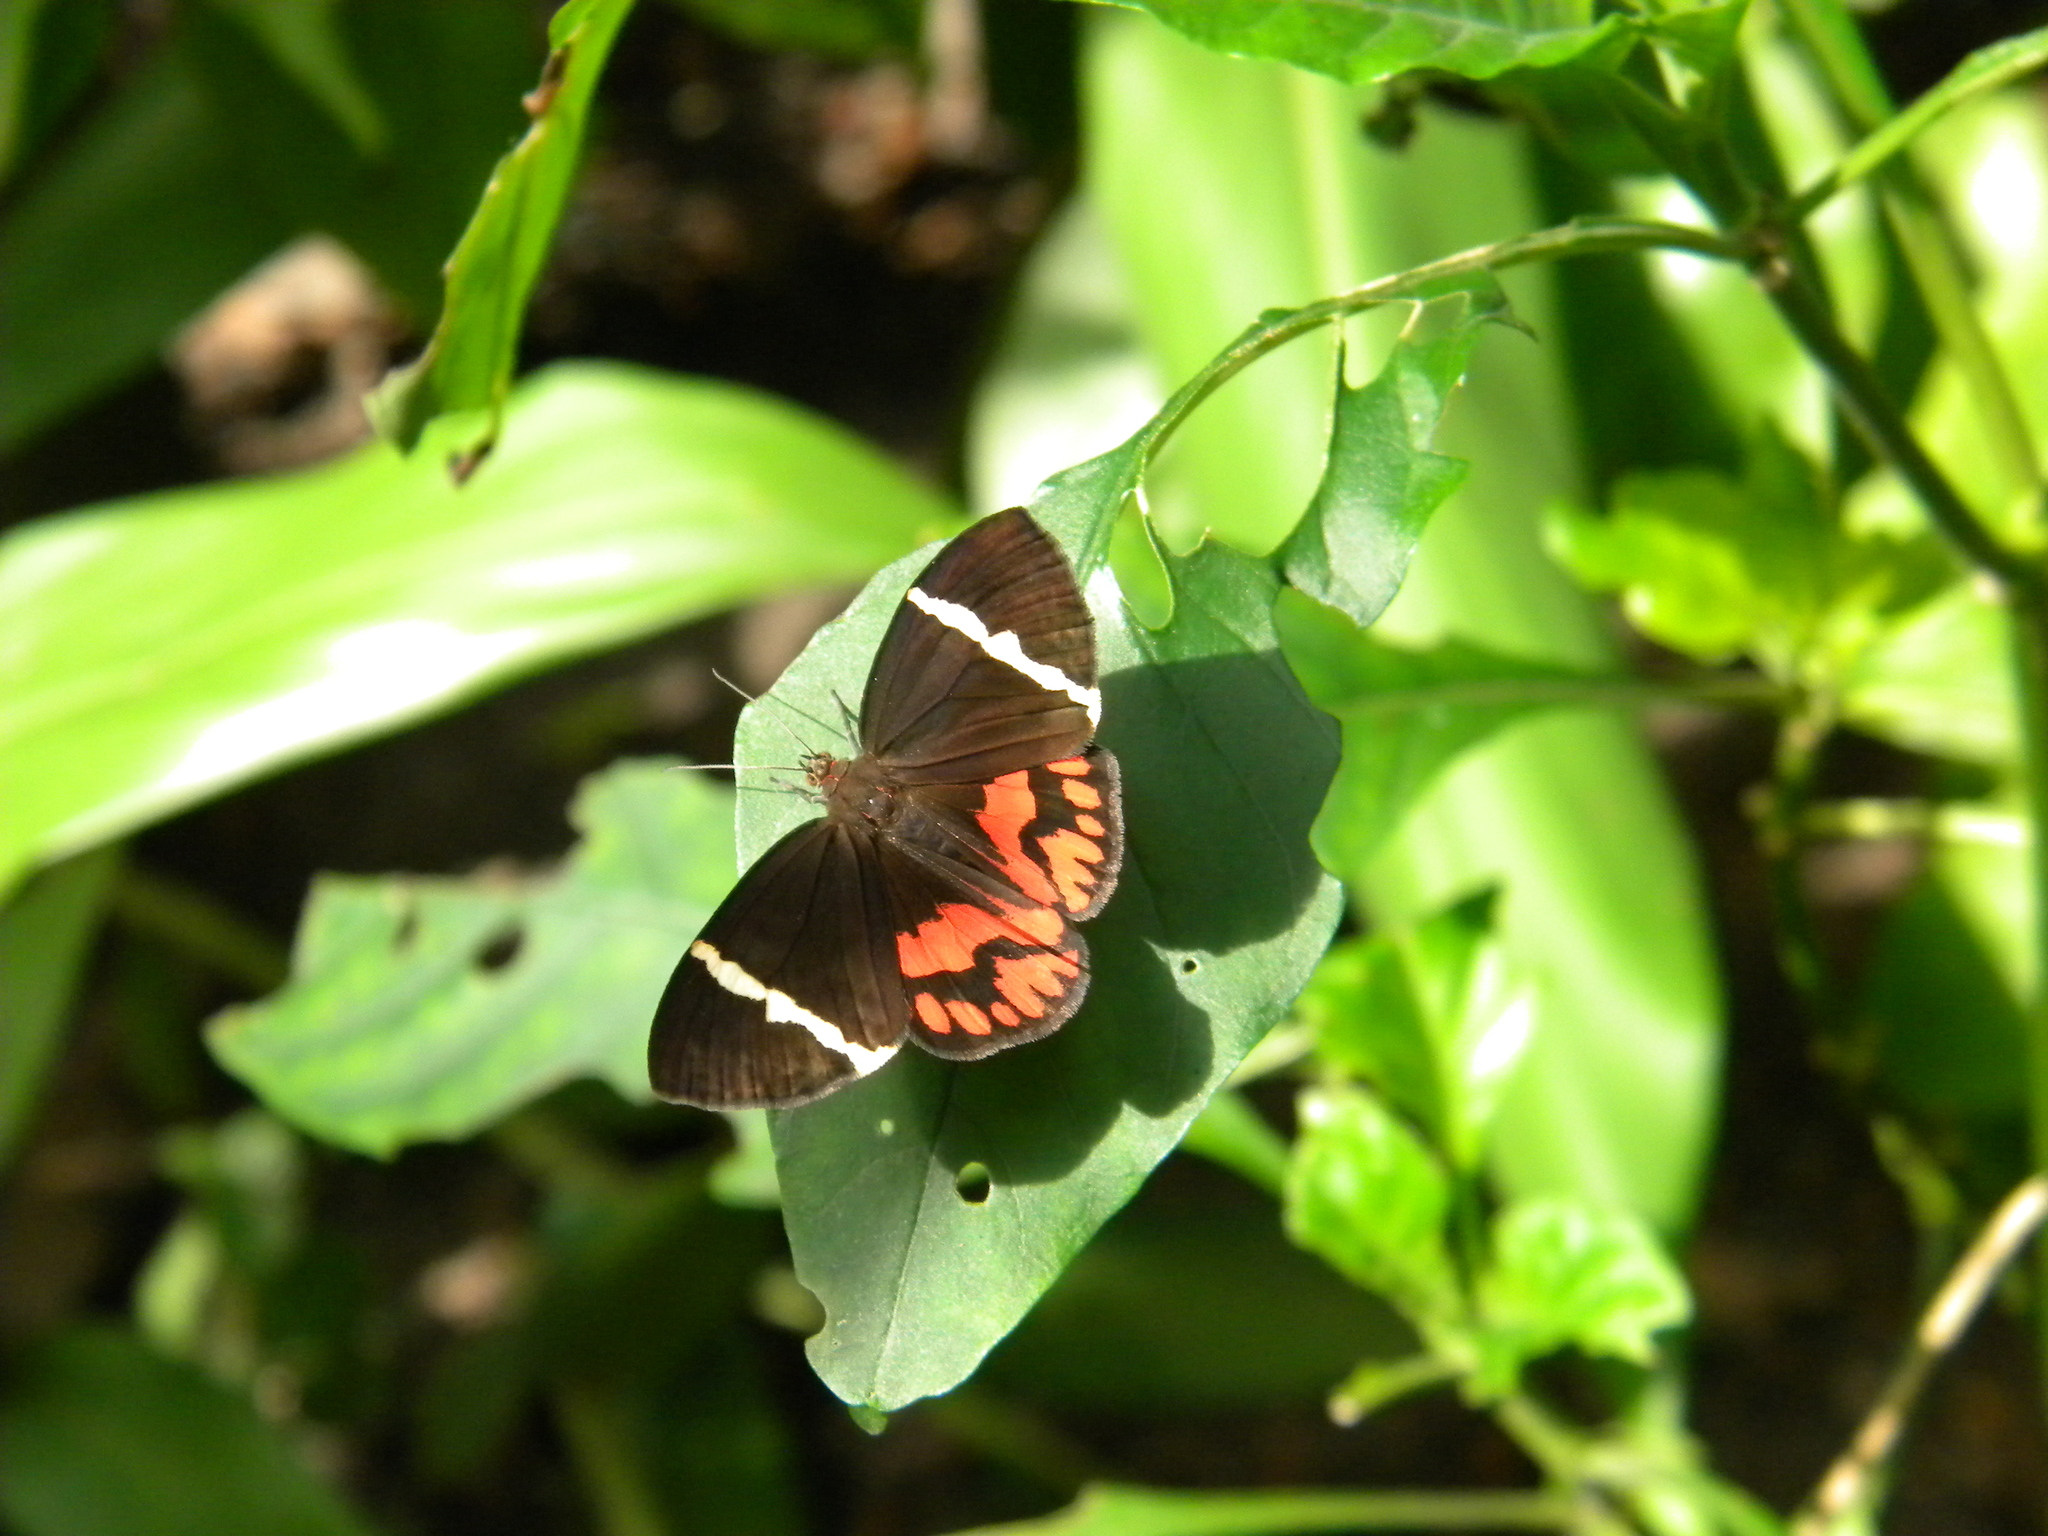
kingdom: Animalia
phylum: Arthropoda
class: Insecta
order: Lepidoptera
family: Erebidae
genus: Curoba
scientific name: Curoba sangarida
